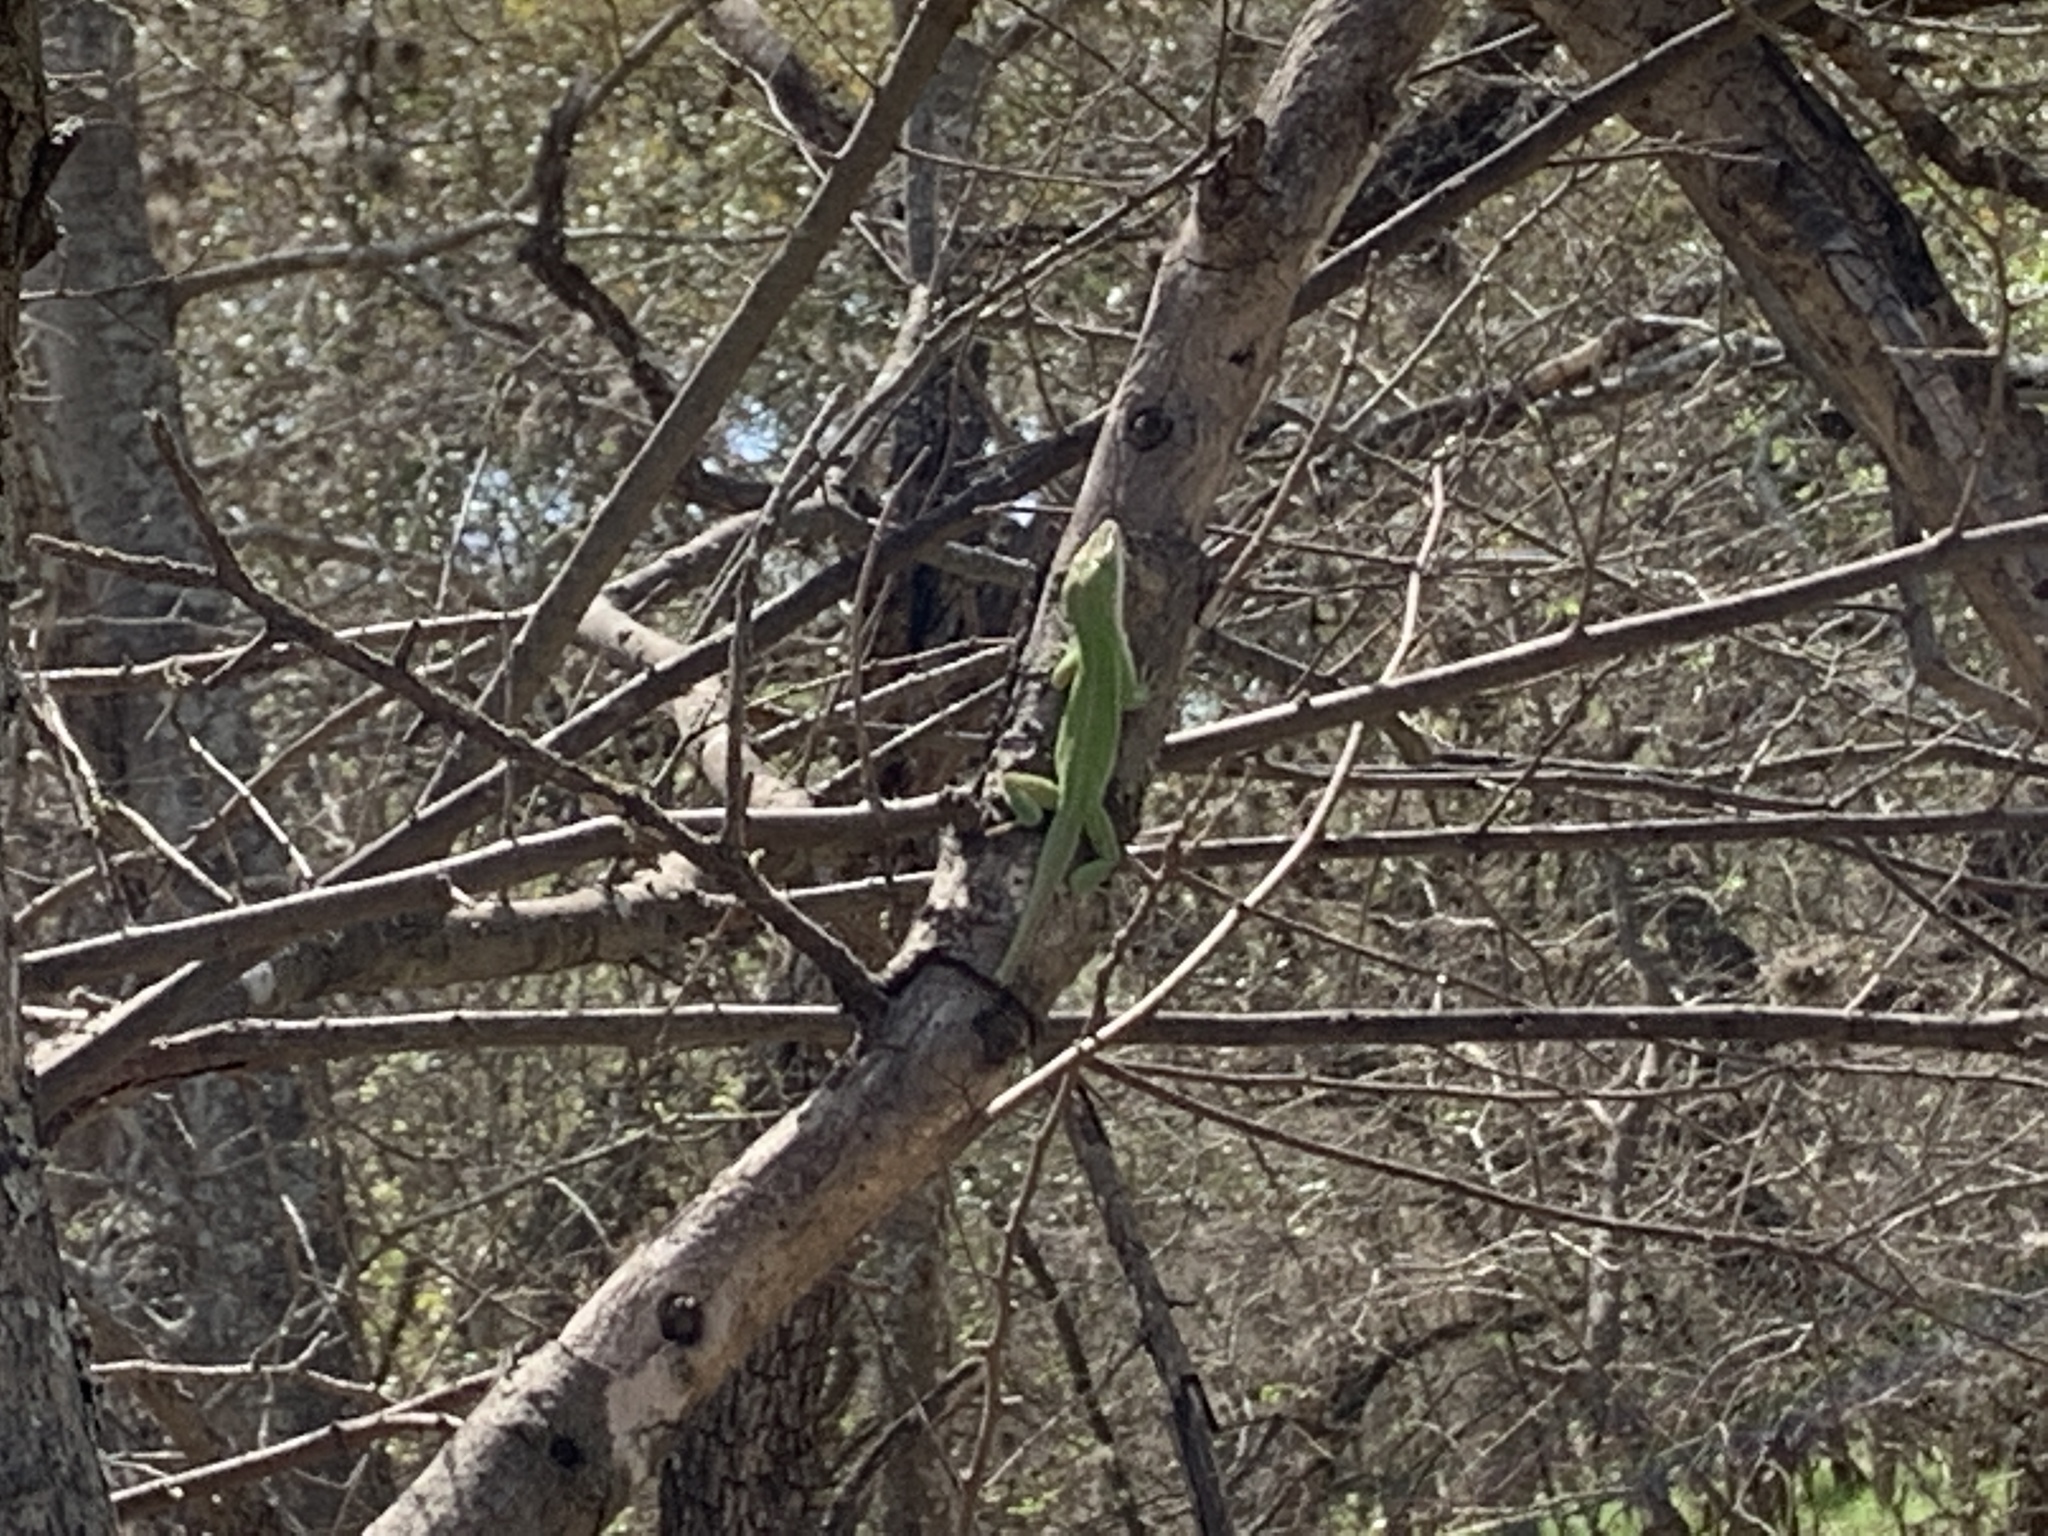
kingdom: Animalia
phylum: Chordata
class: Squamata
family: Dactyloidae
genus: Anolis
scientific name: Anolis carolinensis
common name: Green anole
